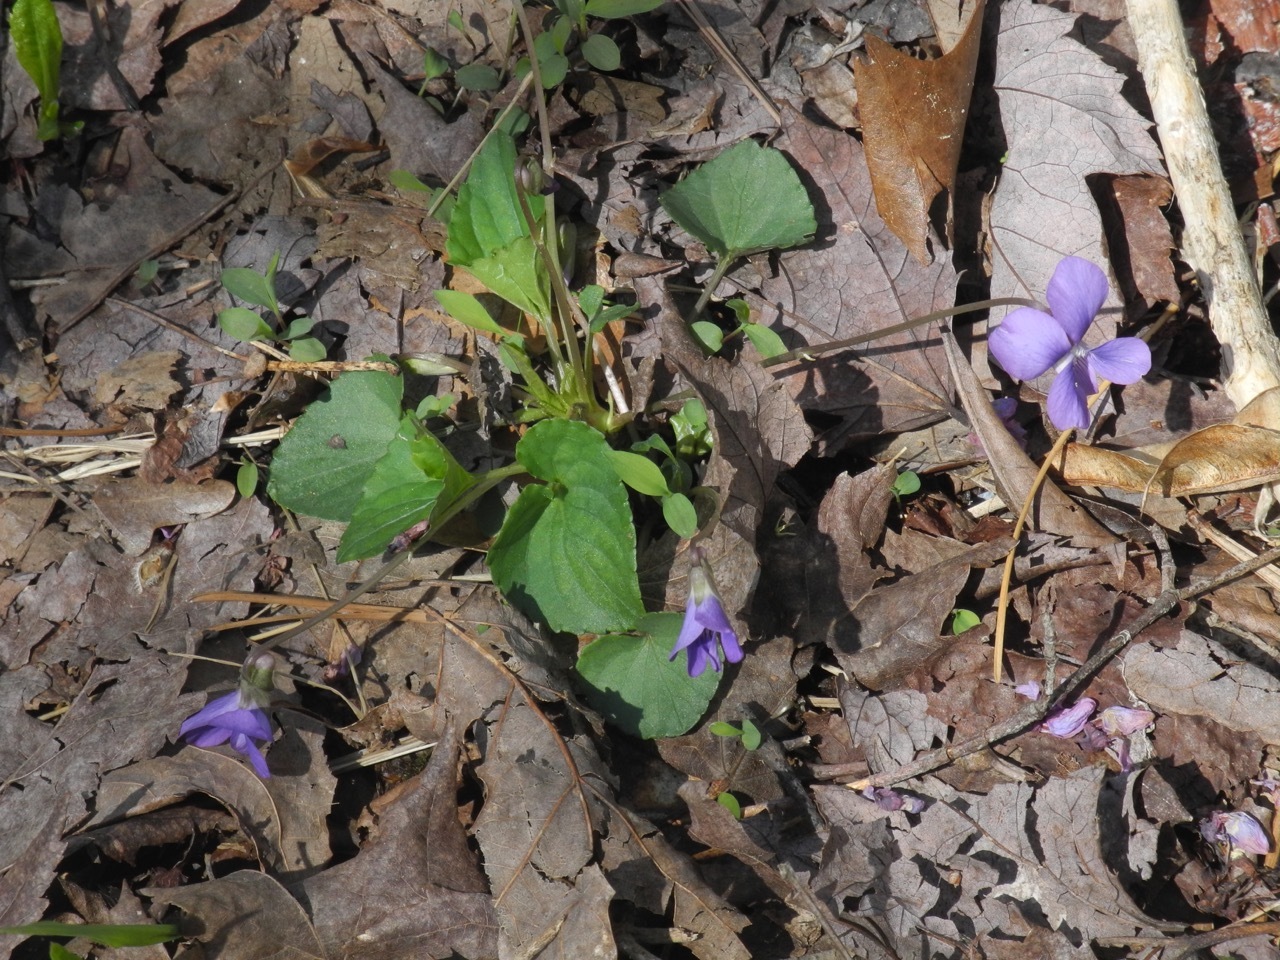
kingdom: Plantae
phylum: Tracheophyta
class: Magnoliopsida
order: Malpighiales
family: Violaceae
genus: Viola
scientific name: Viola sororia
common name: Dooryard violet
